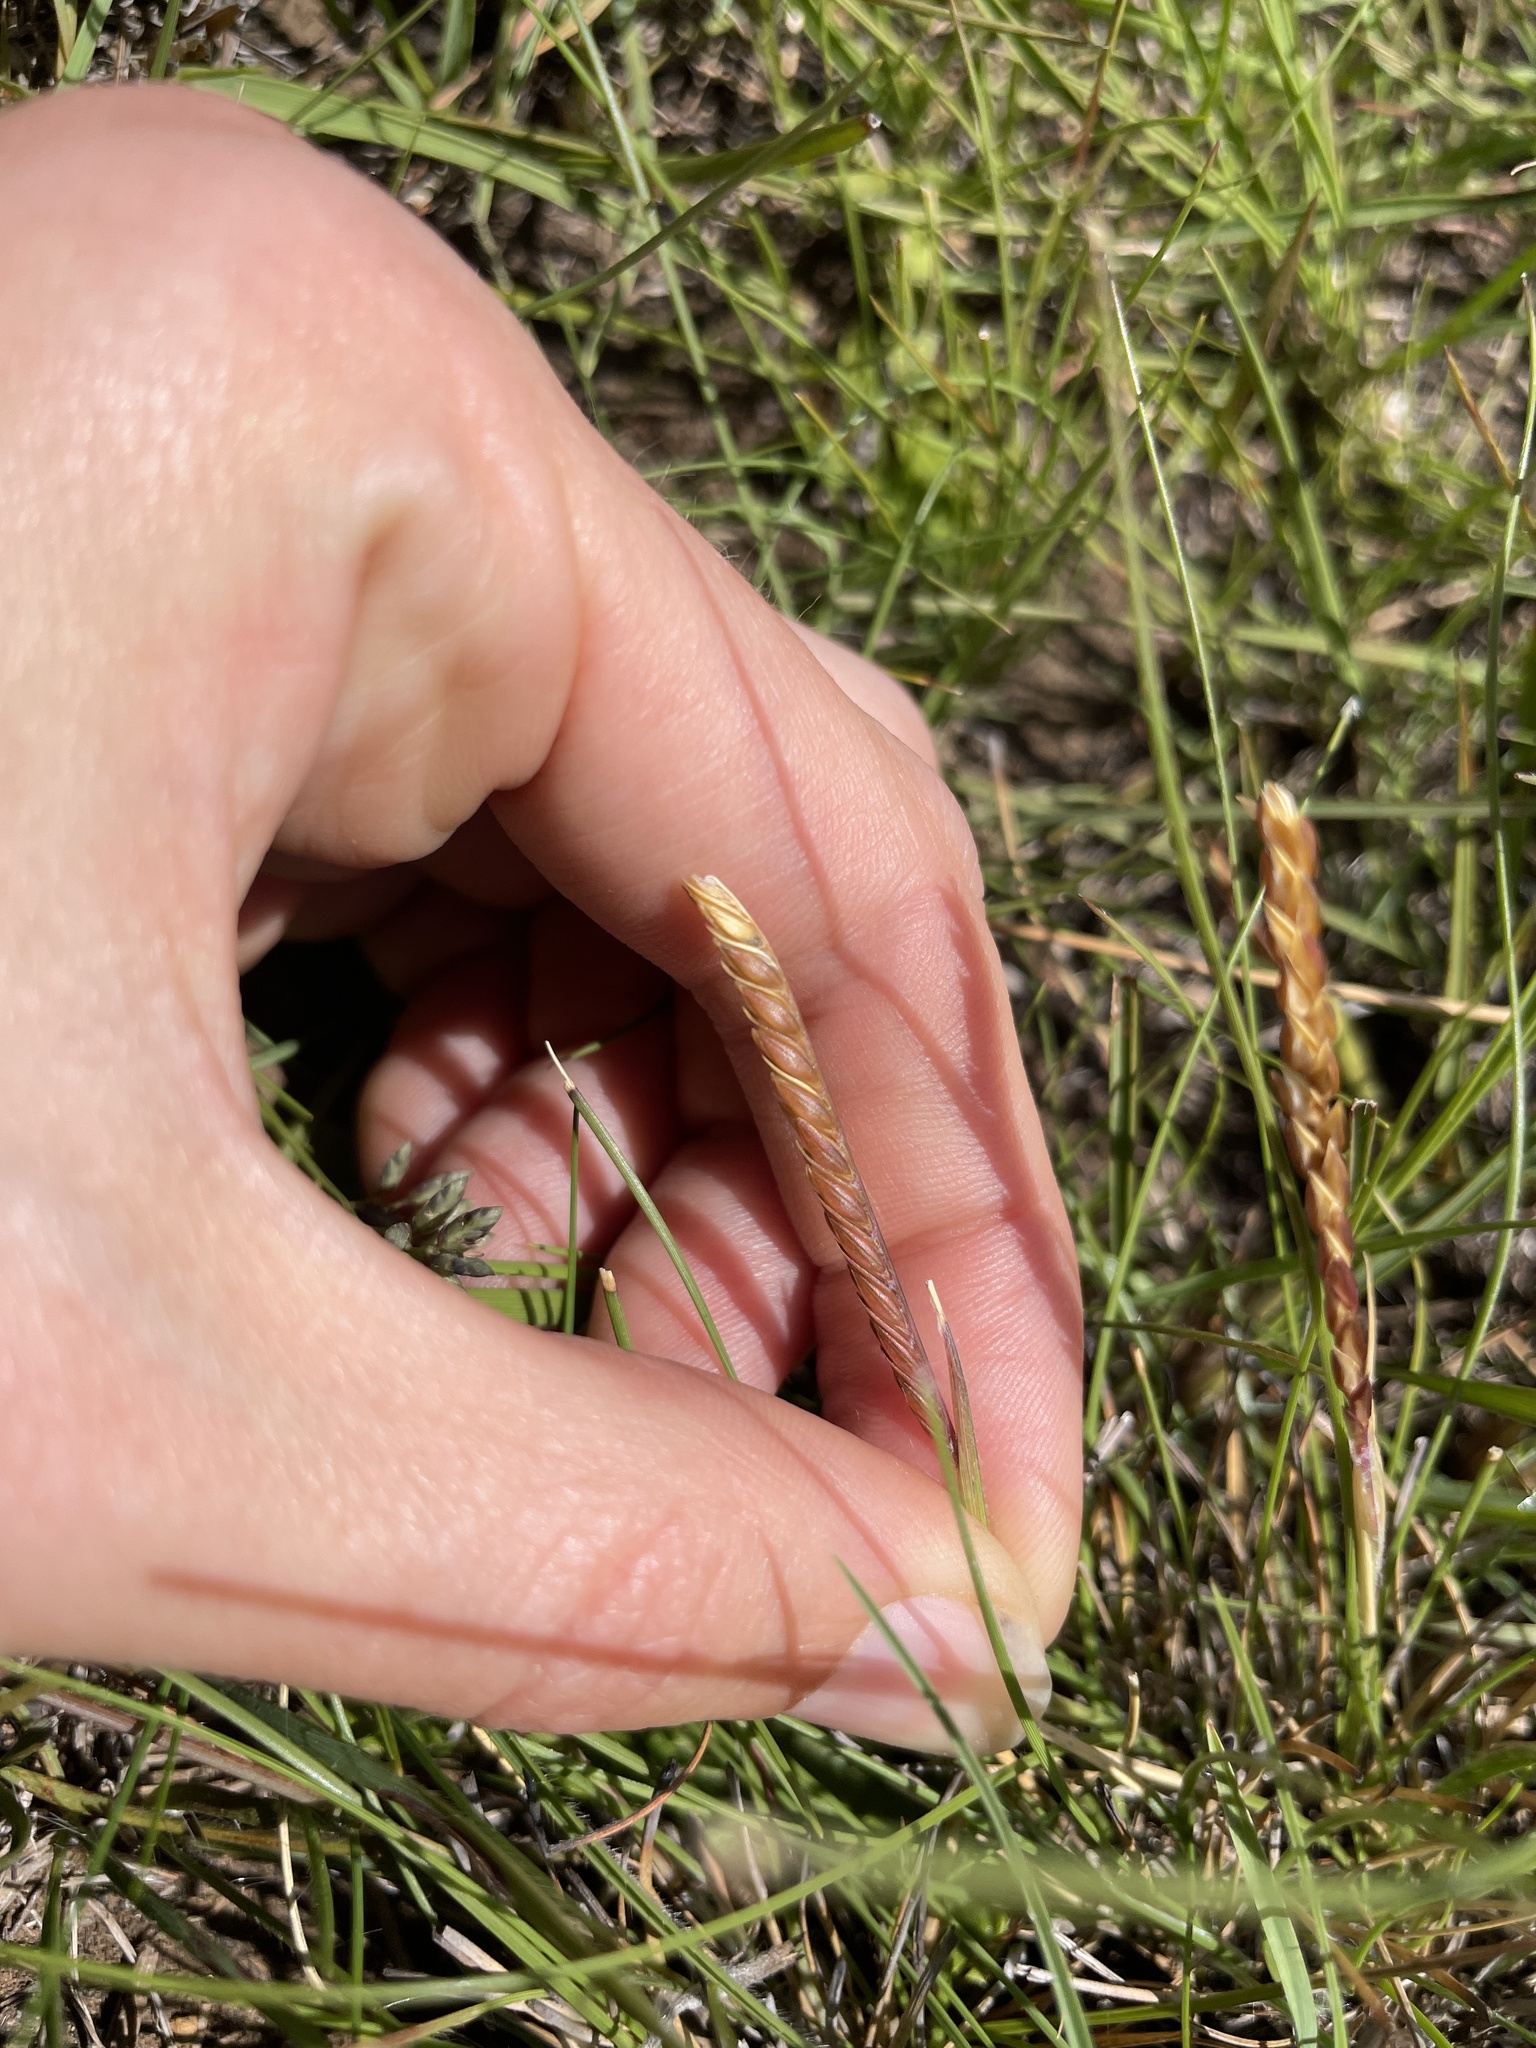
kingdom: Plantae
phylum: Tracheophyta
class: Liliopsida
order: Poales
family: Poaceae
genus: Microchloa
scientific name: Microchloa altera
